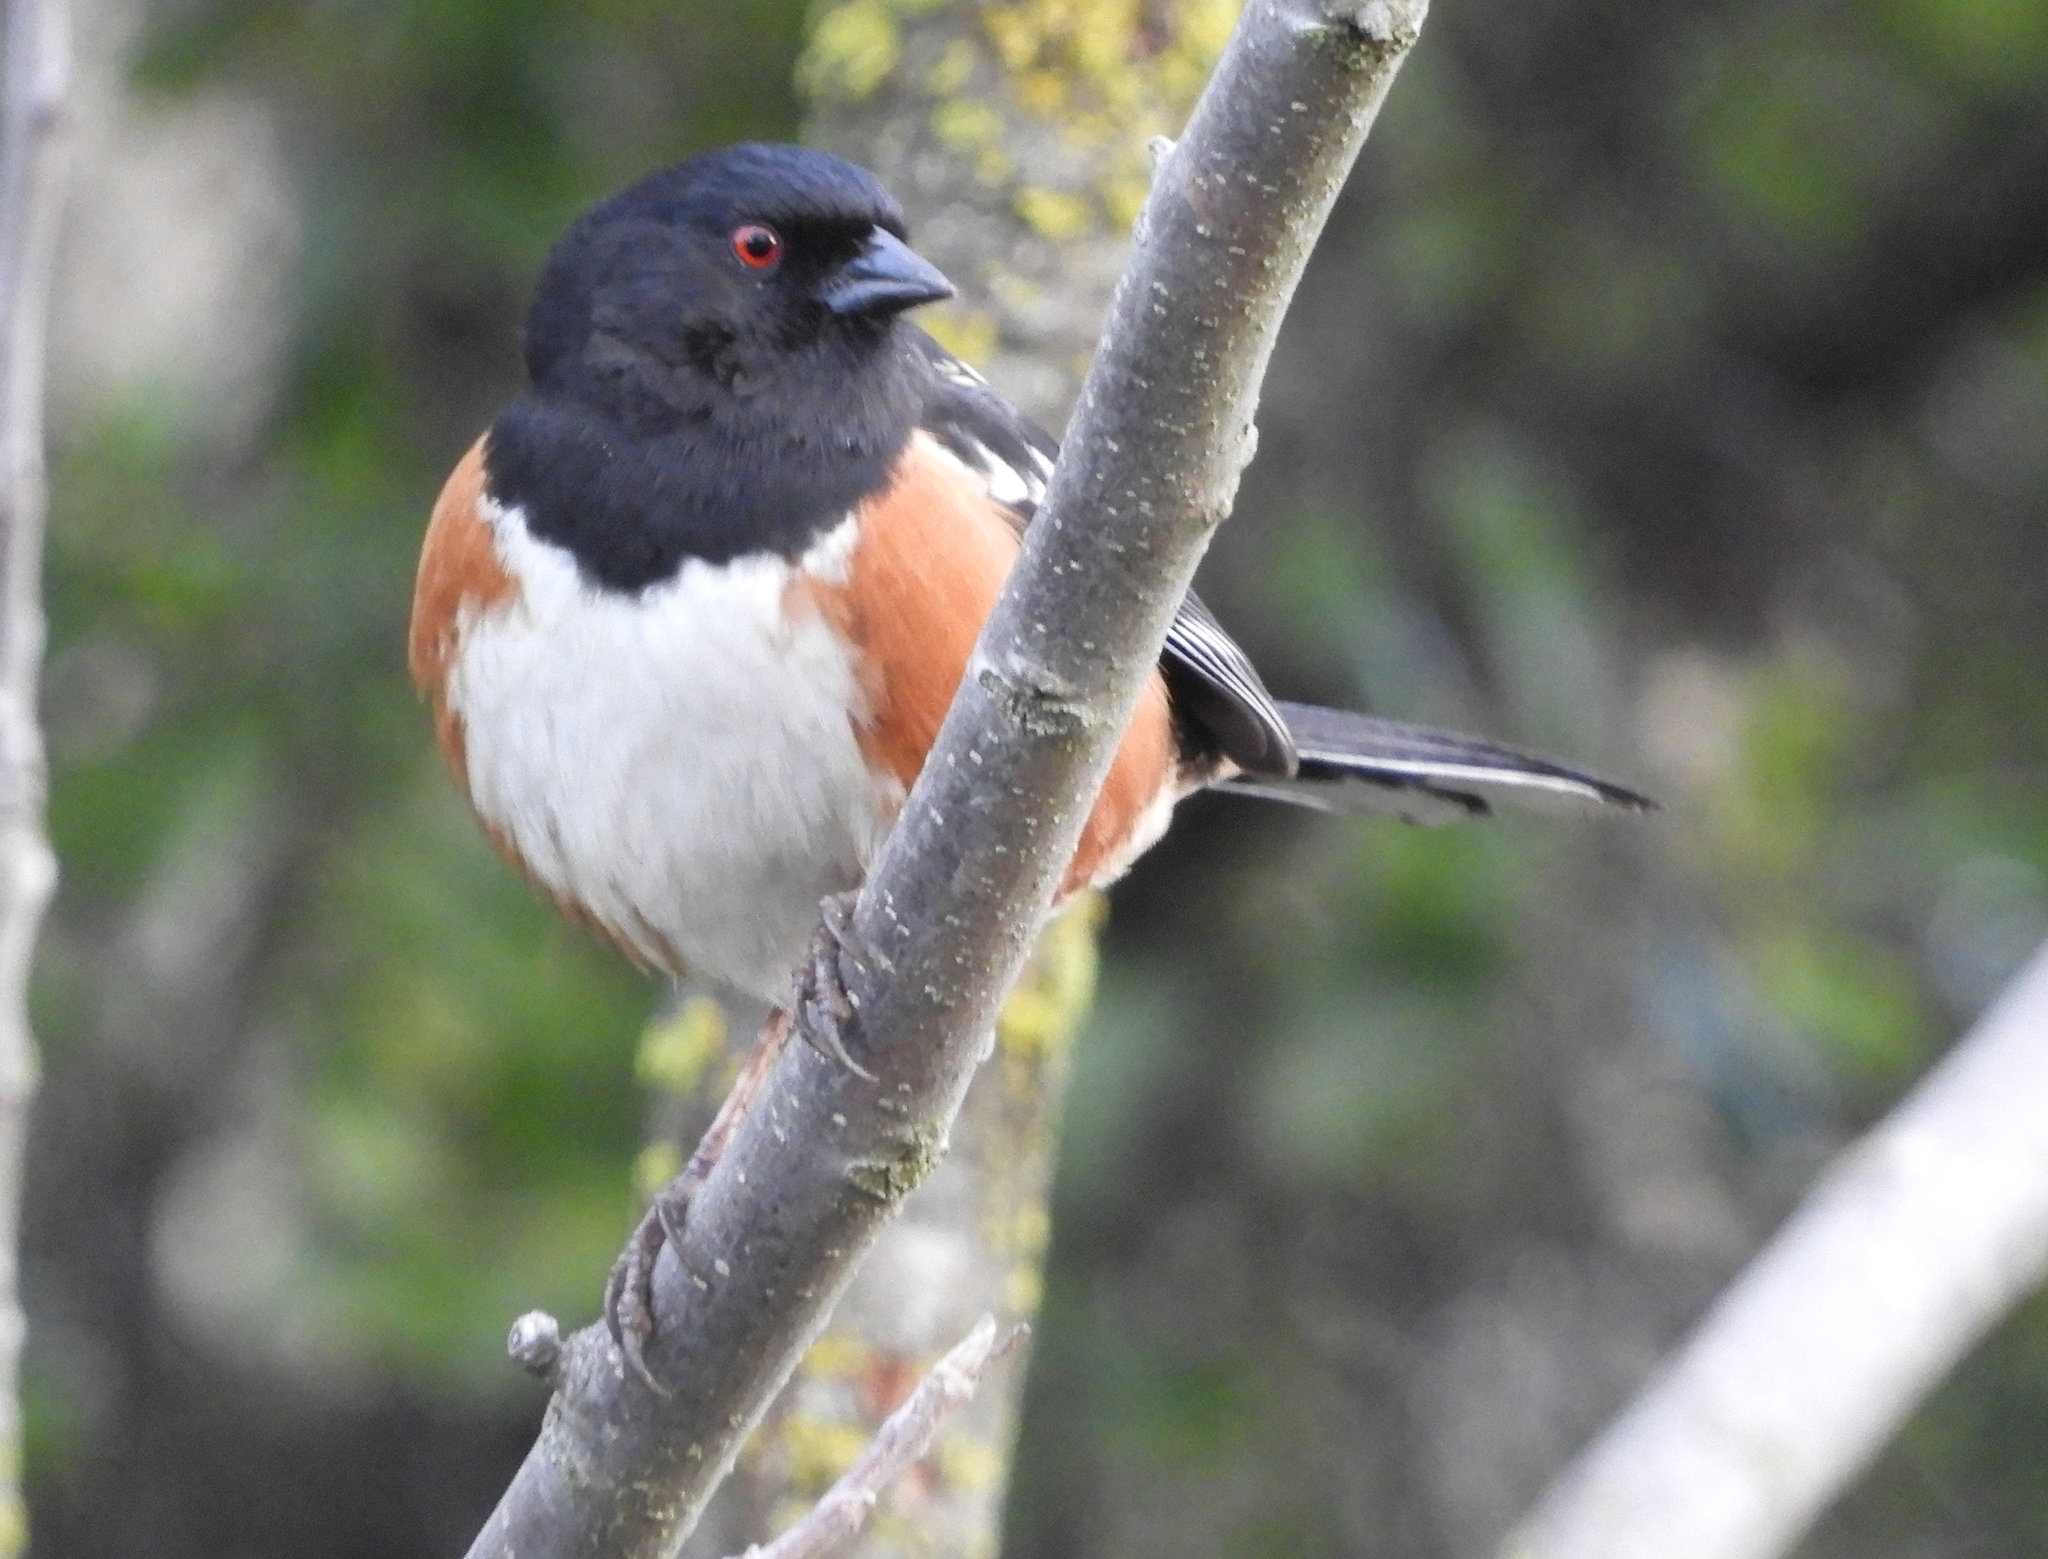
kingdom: Animalia
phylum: Chordata
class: Aves
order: Passeriformes
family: Passerellidae
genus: Pipilo
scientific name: Pipilo maculatus
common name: Spotted towhee
